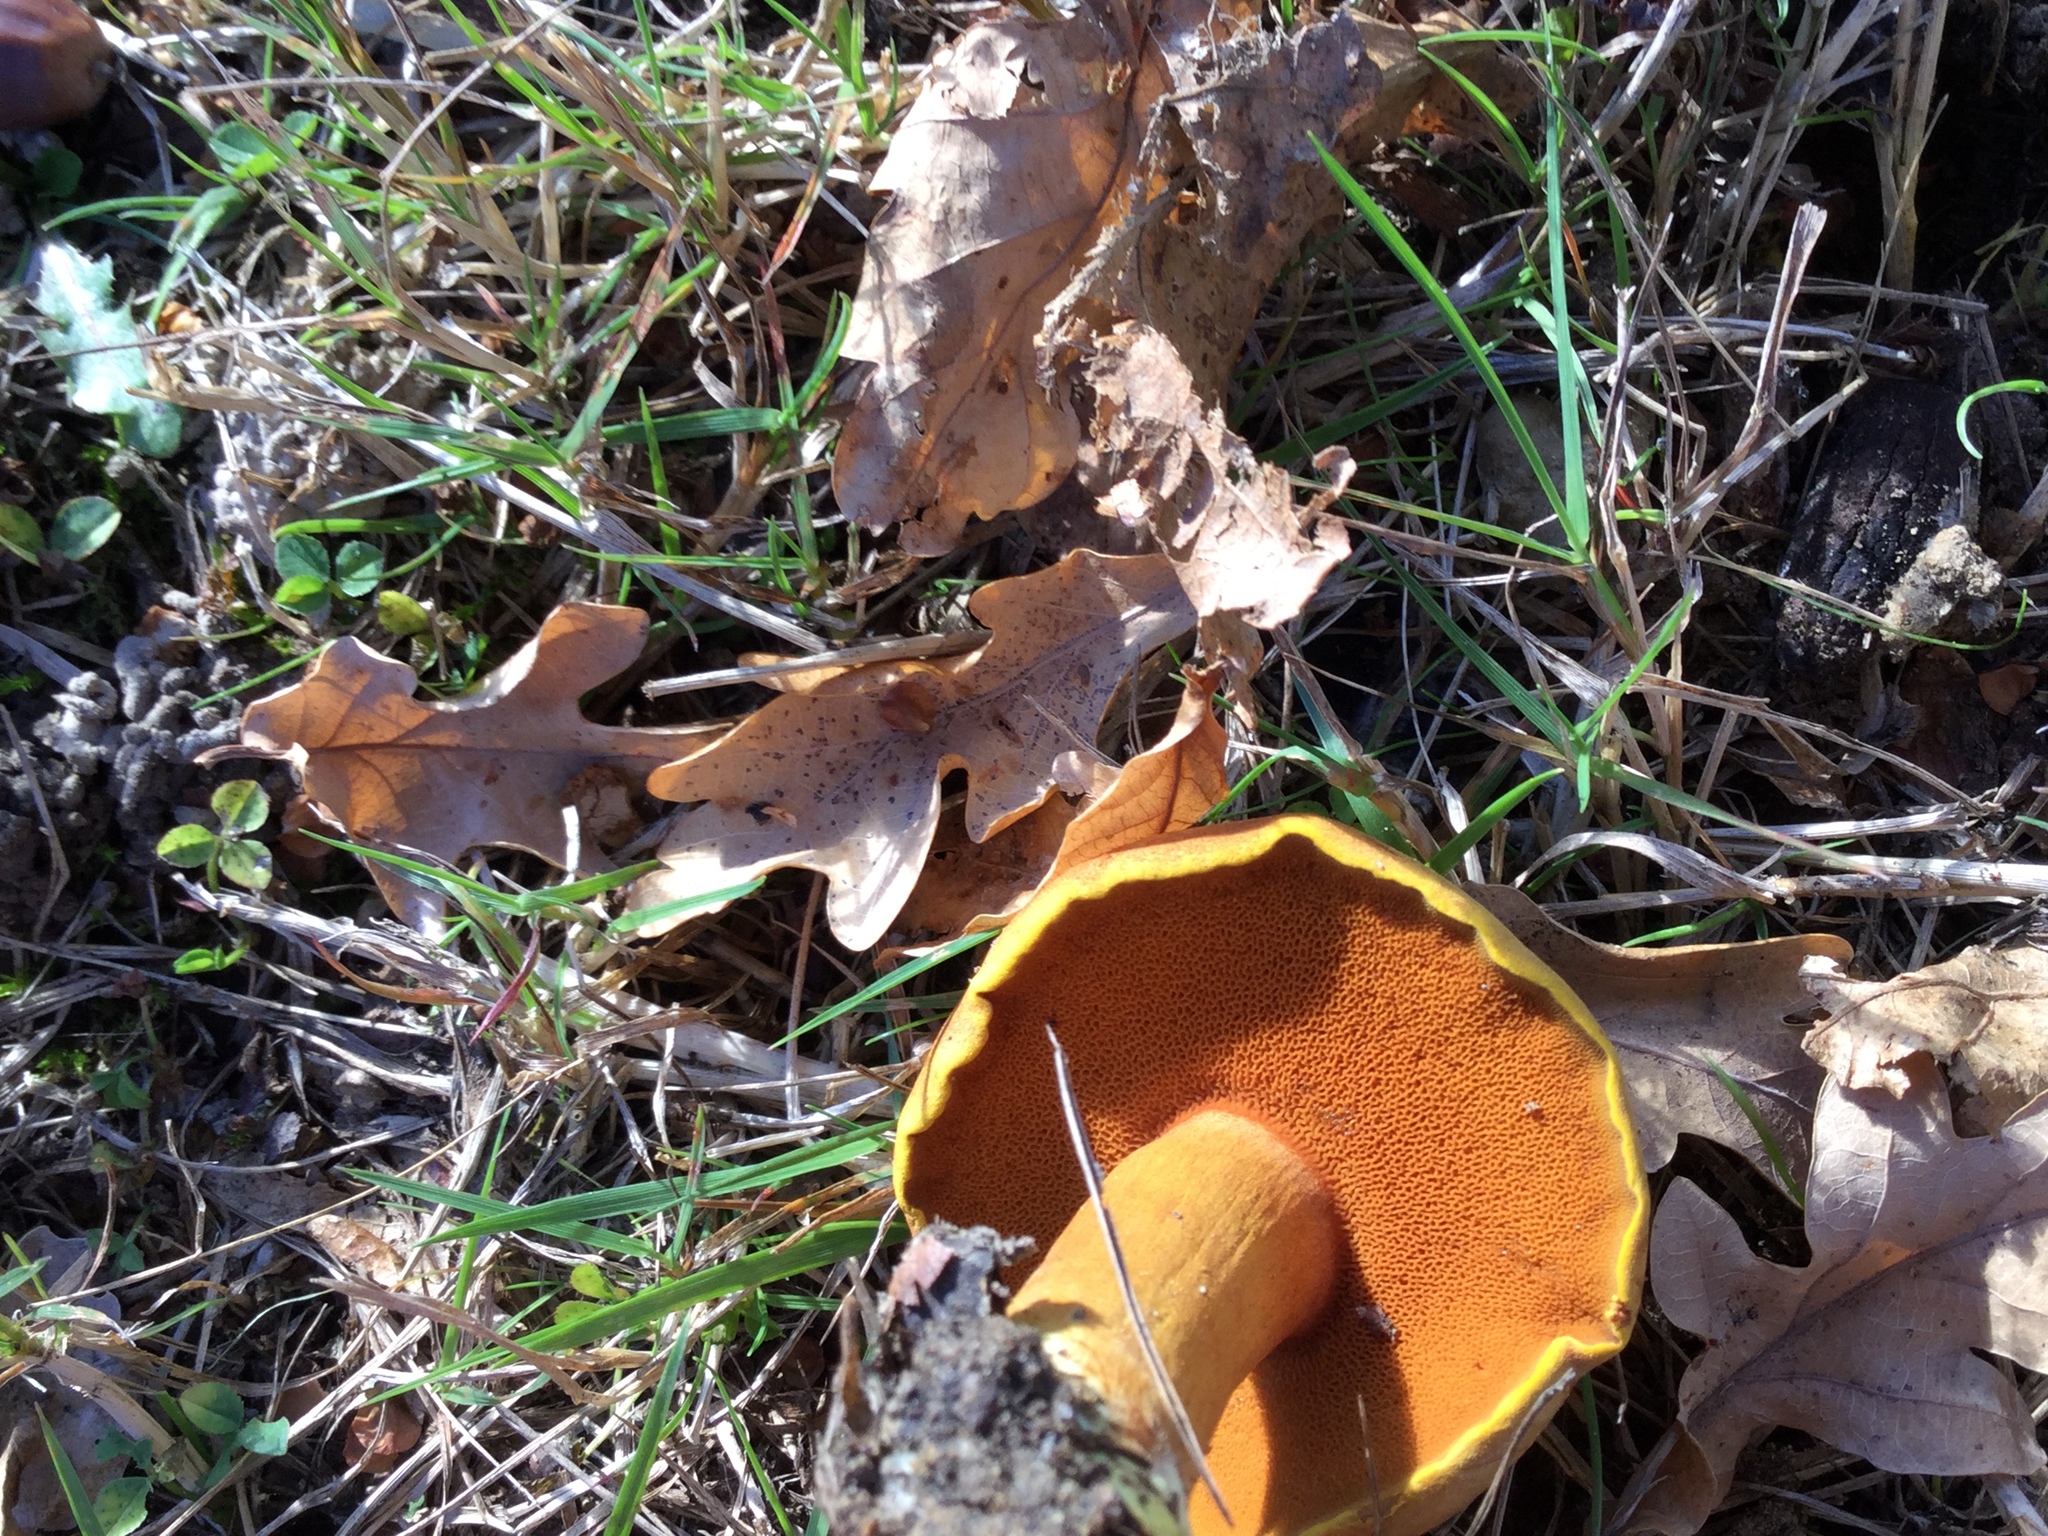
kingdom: Fungi
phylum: Basidiomycota
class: Agaricomycetes
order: Boletales
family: Boletaceae
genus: Chalciporus
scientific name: Chalciporus piperatus
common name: Peppery bolete
